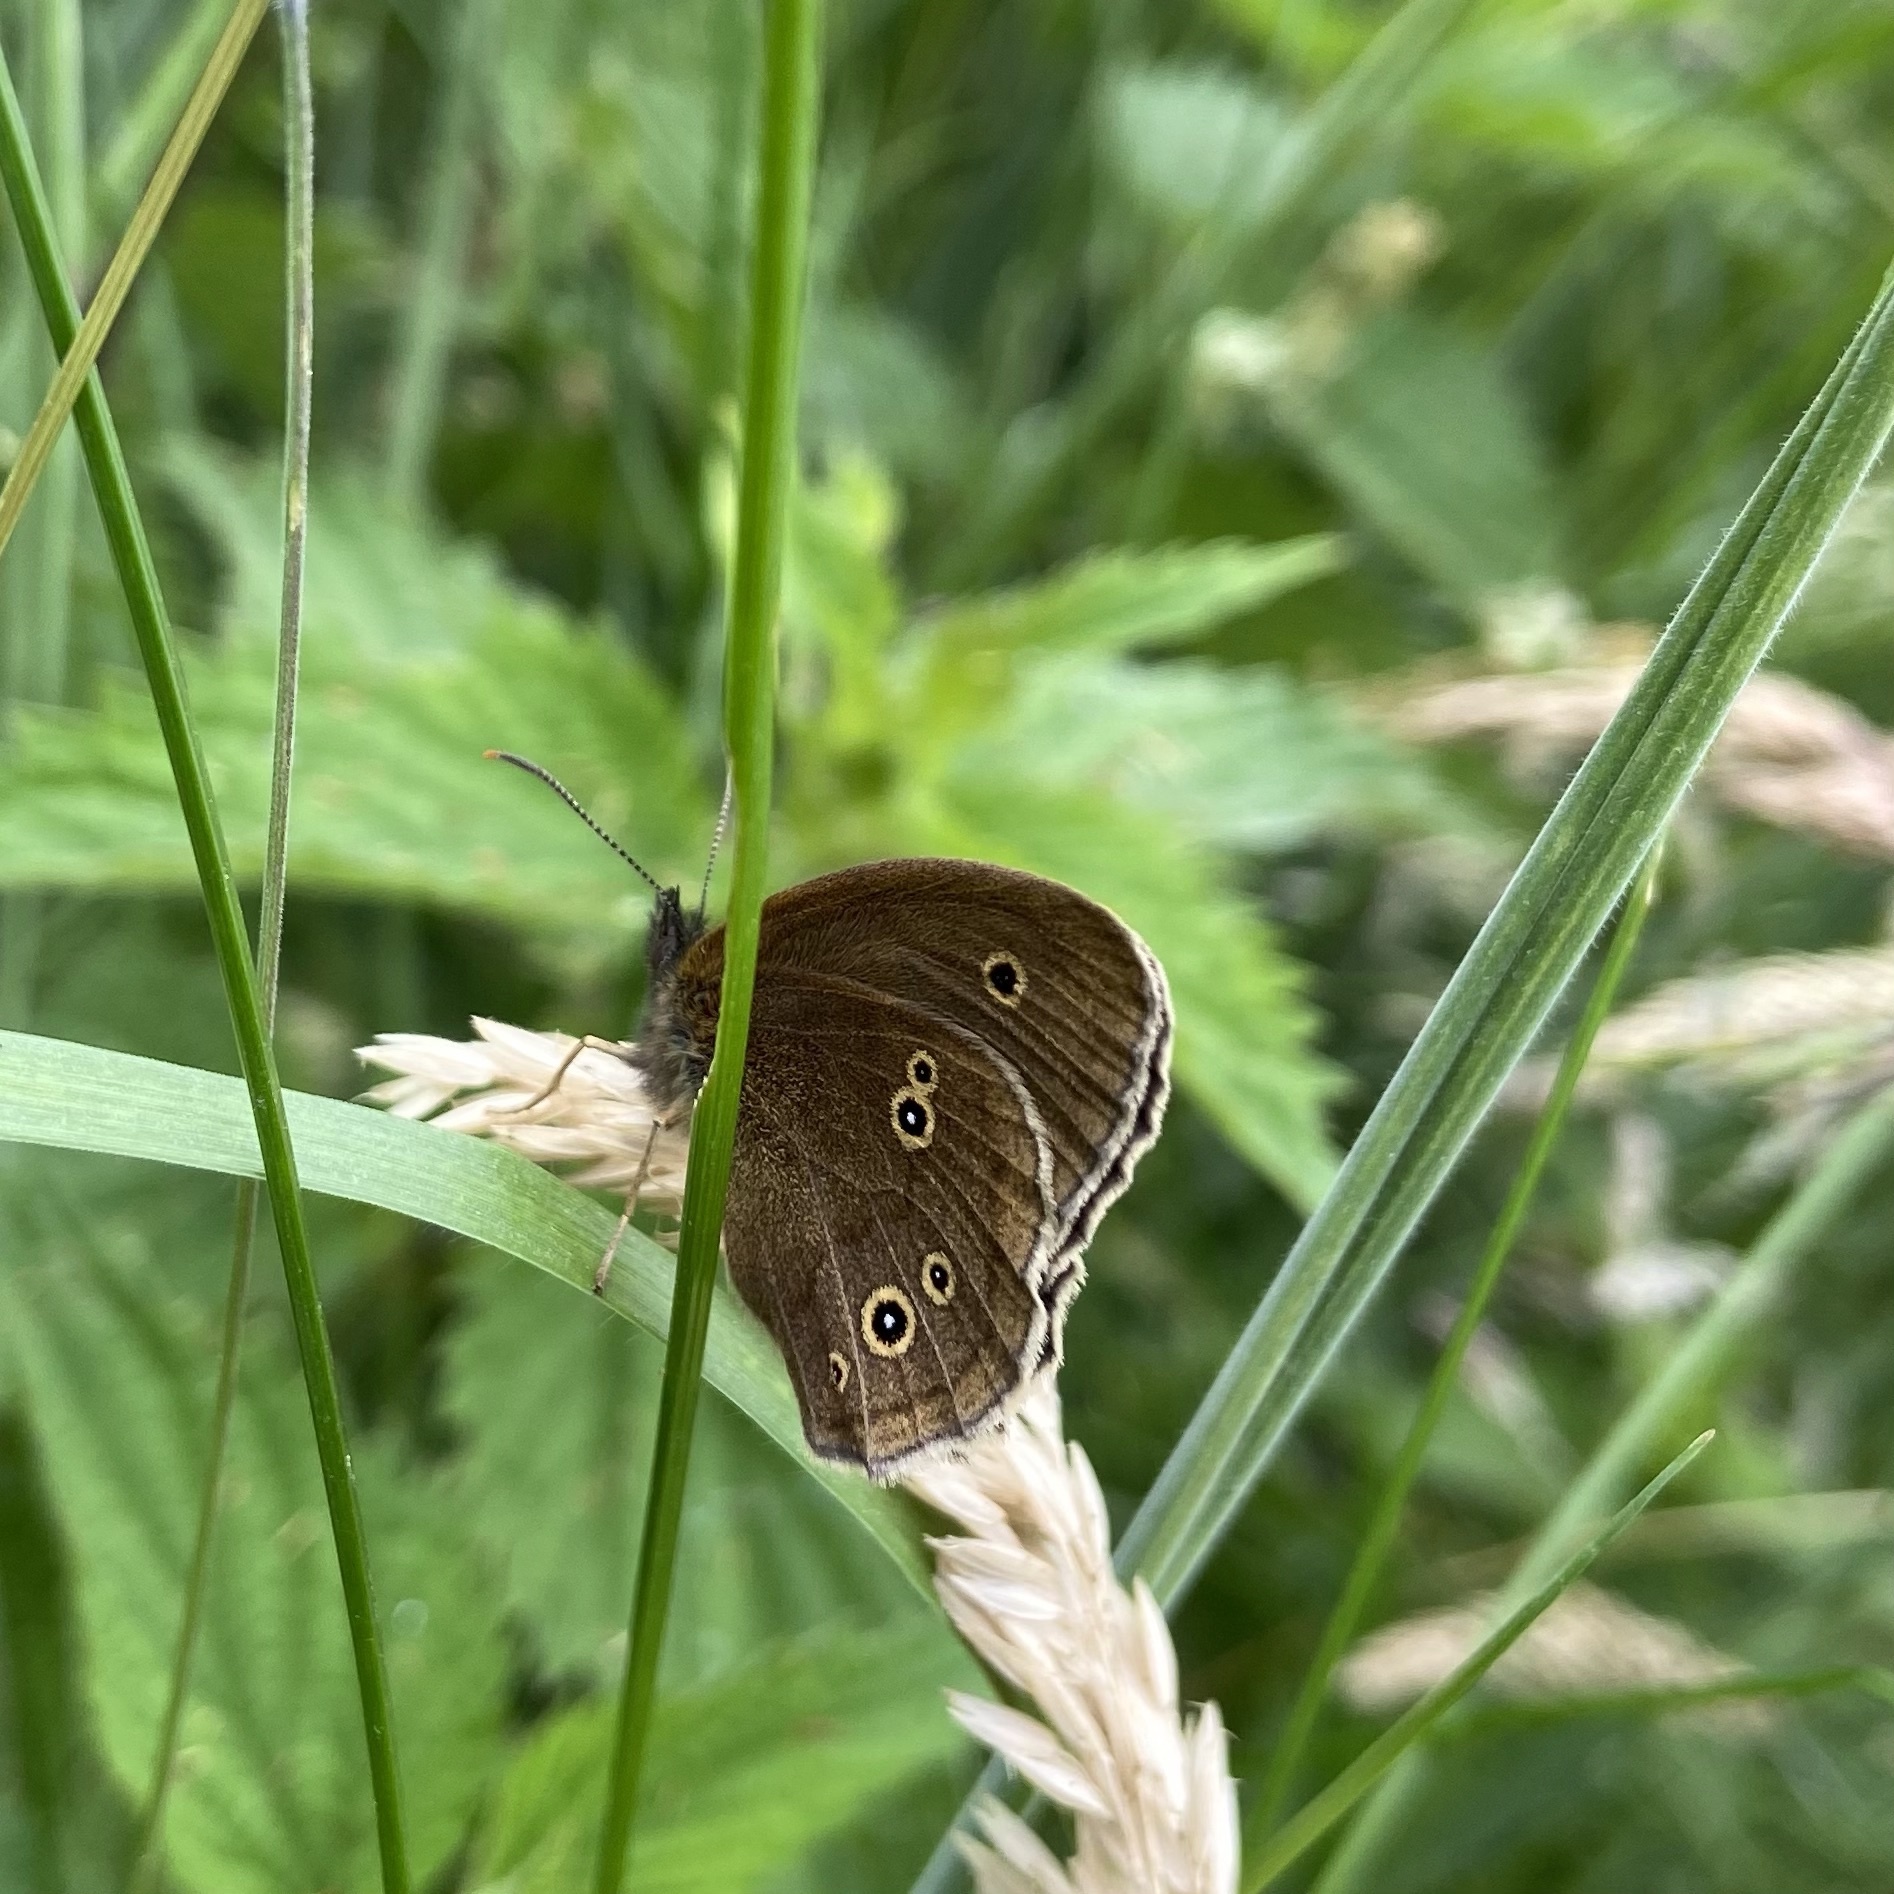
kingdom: Animalia
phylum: Arthropoda
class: Insecta
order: Lepidoptera
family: Nymphalidae
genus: Aphantopus
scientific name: Aphantopus hyperantus
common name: Ringlet
